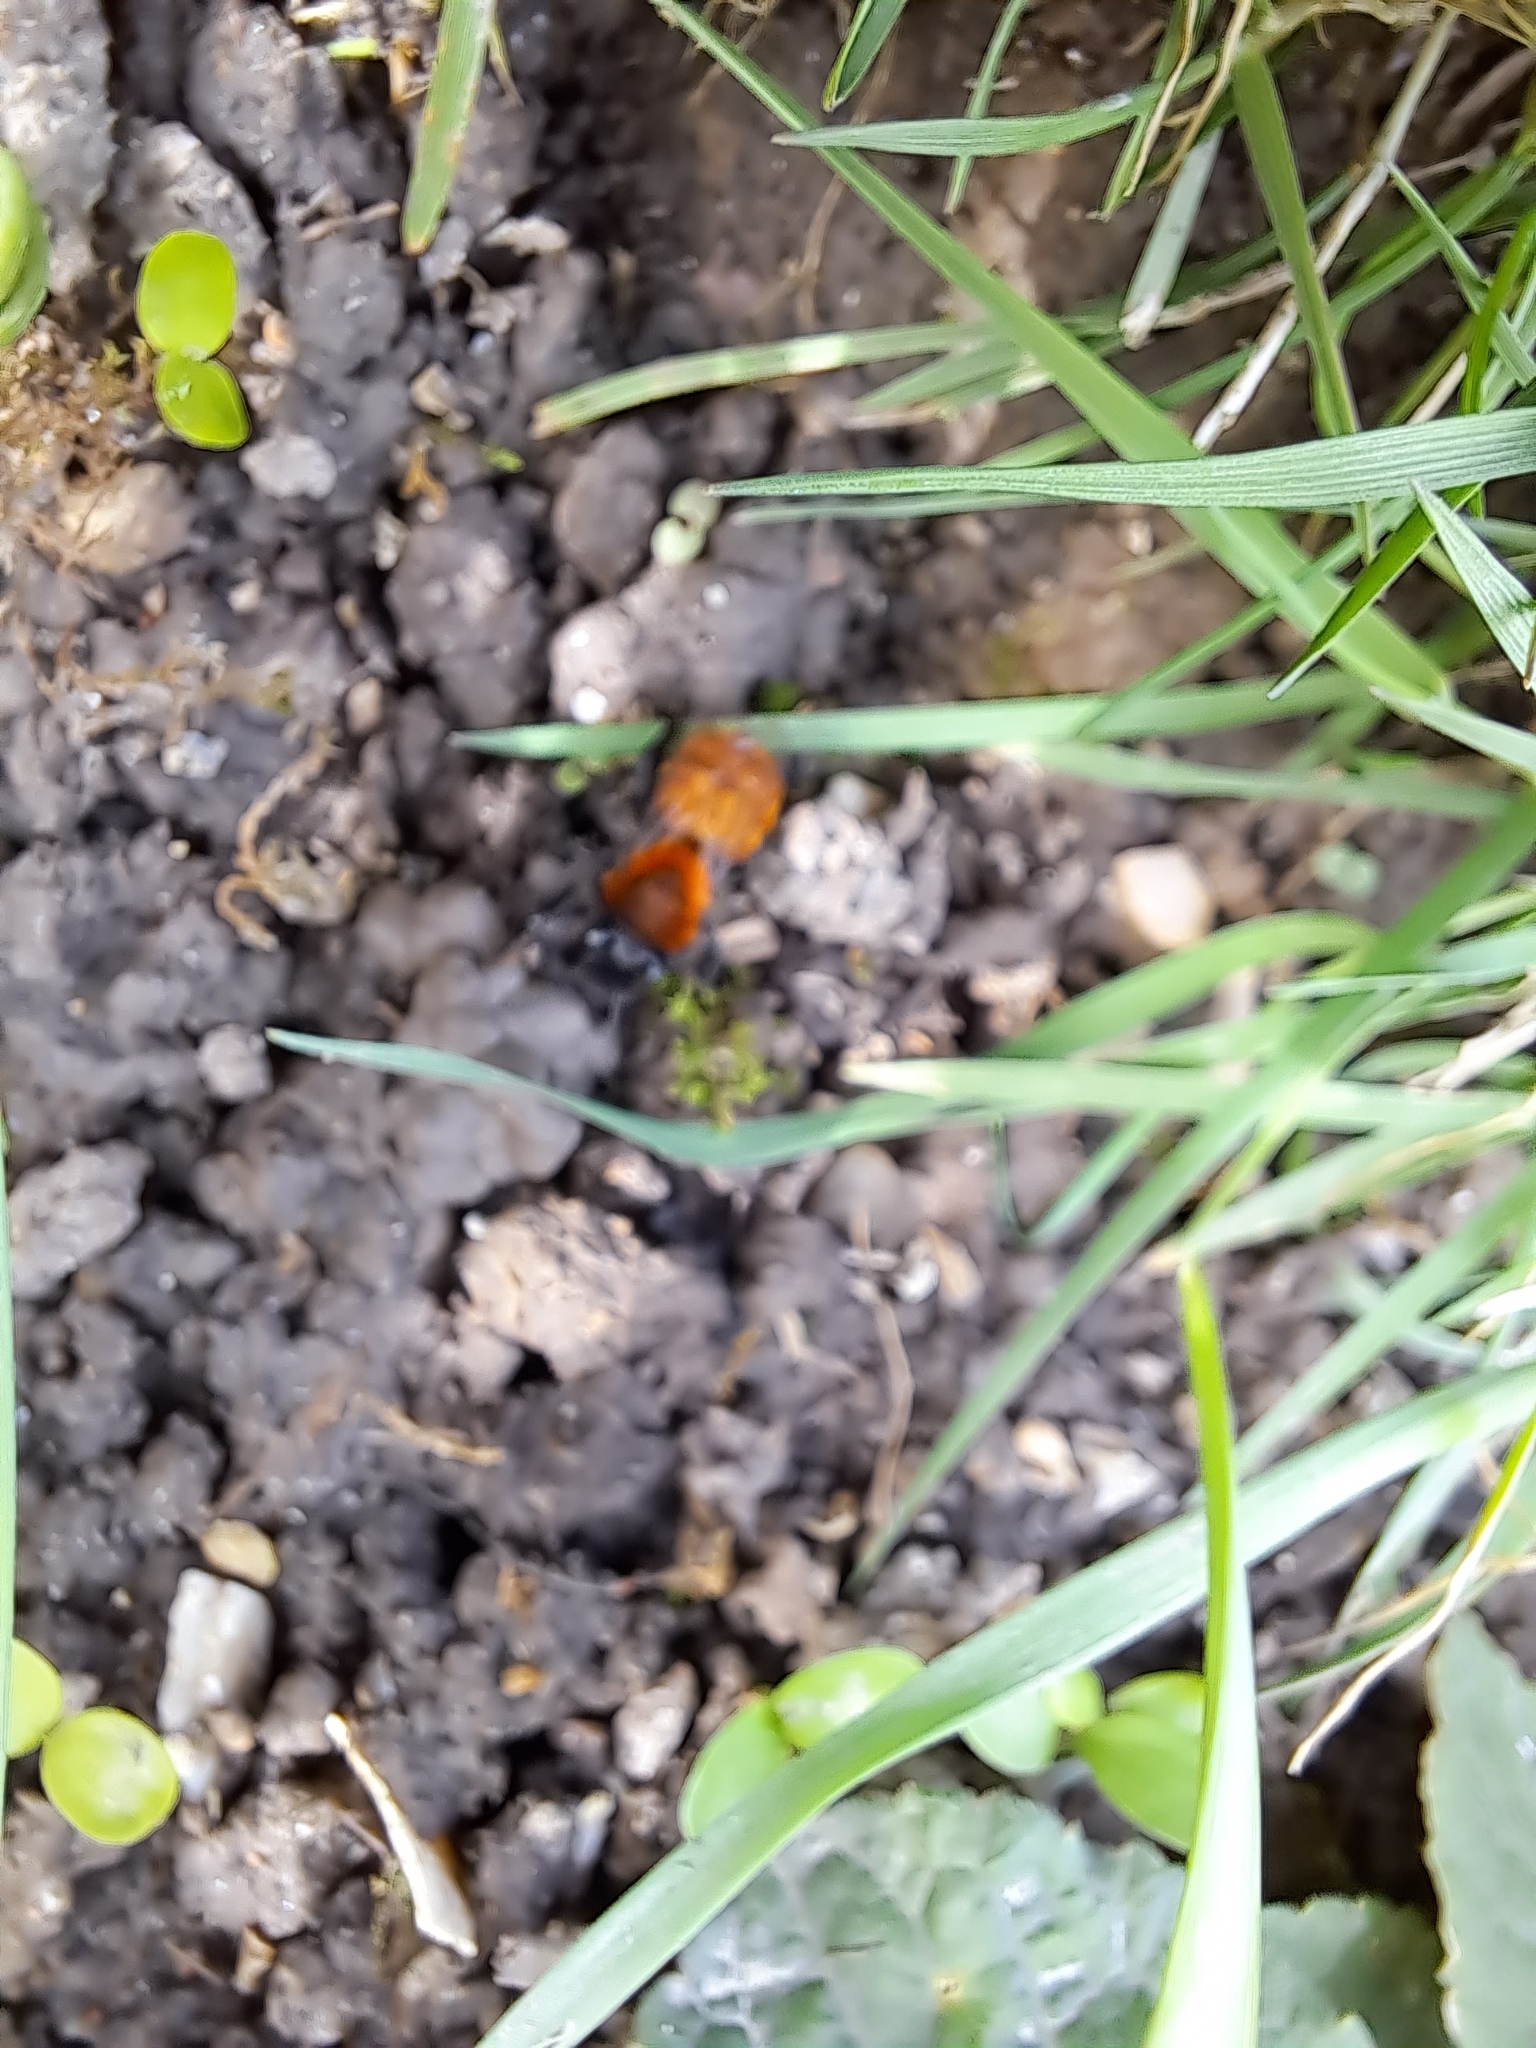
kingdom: Animalia
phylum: Arthropoda
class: Insecta
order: Hymenoptera
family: Andrenidae
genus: Andrena
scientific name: Andrena fulva
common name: Tawny mining bee
